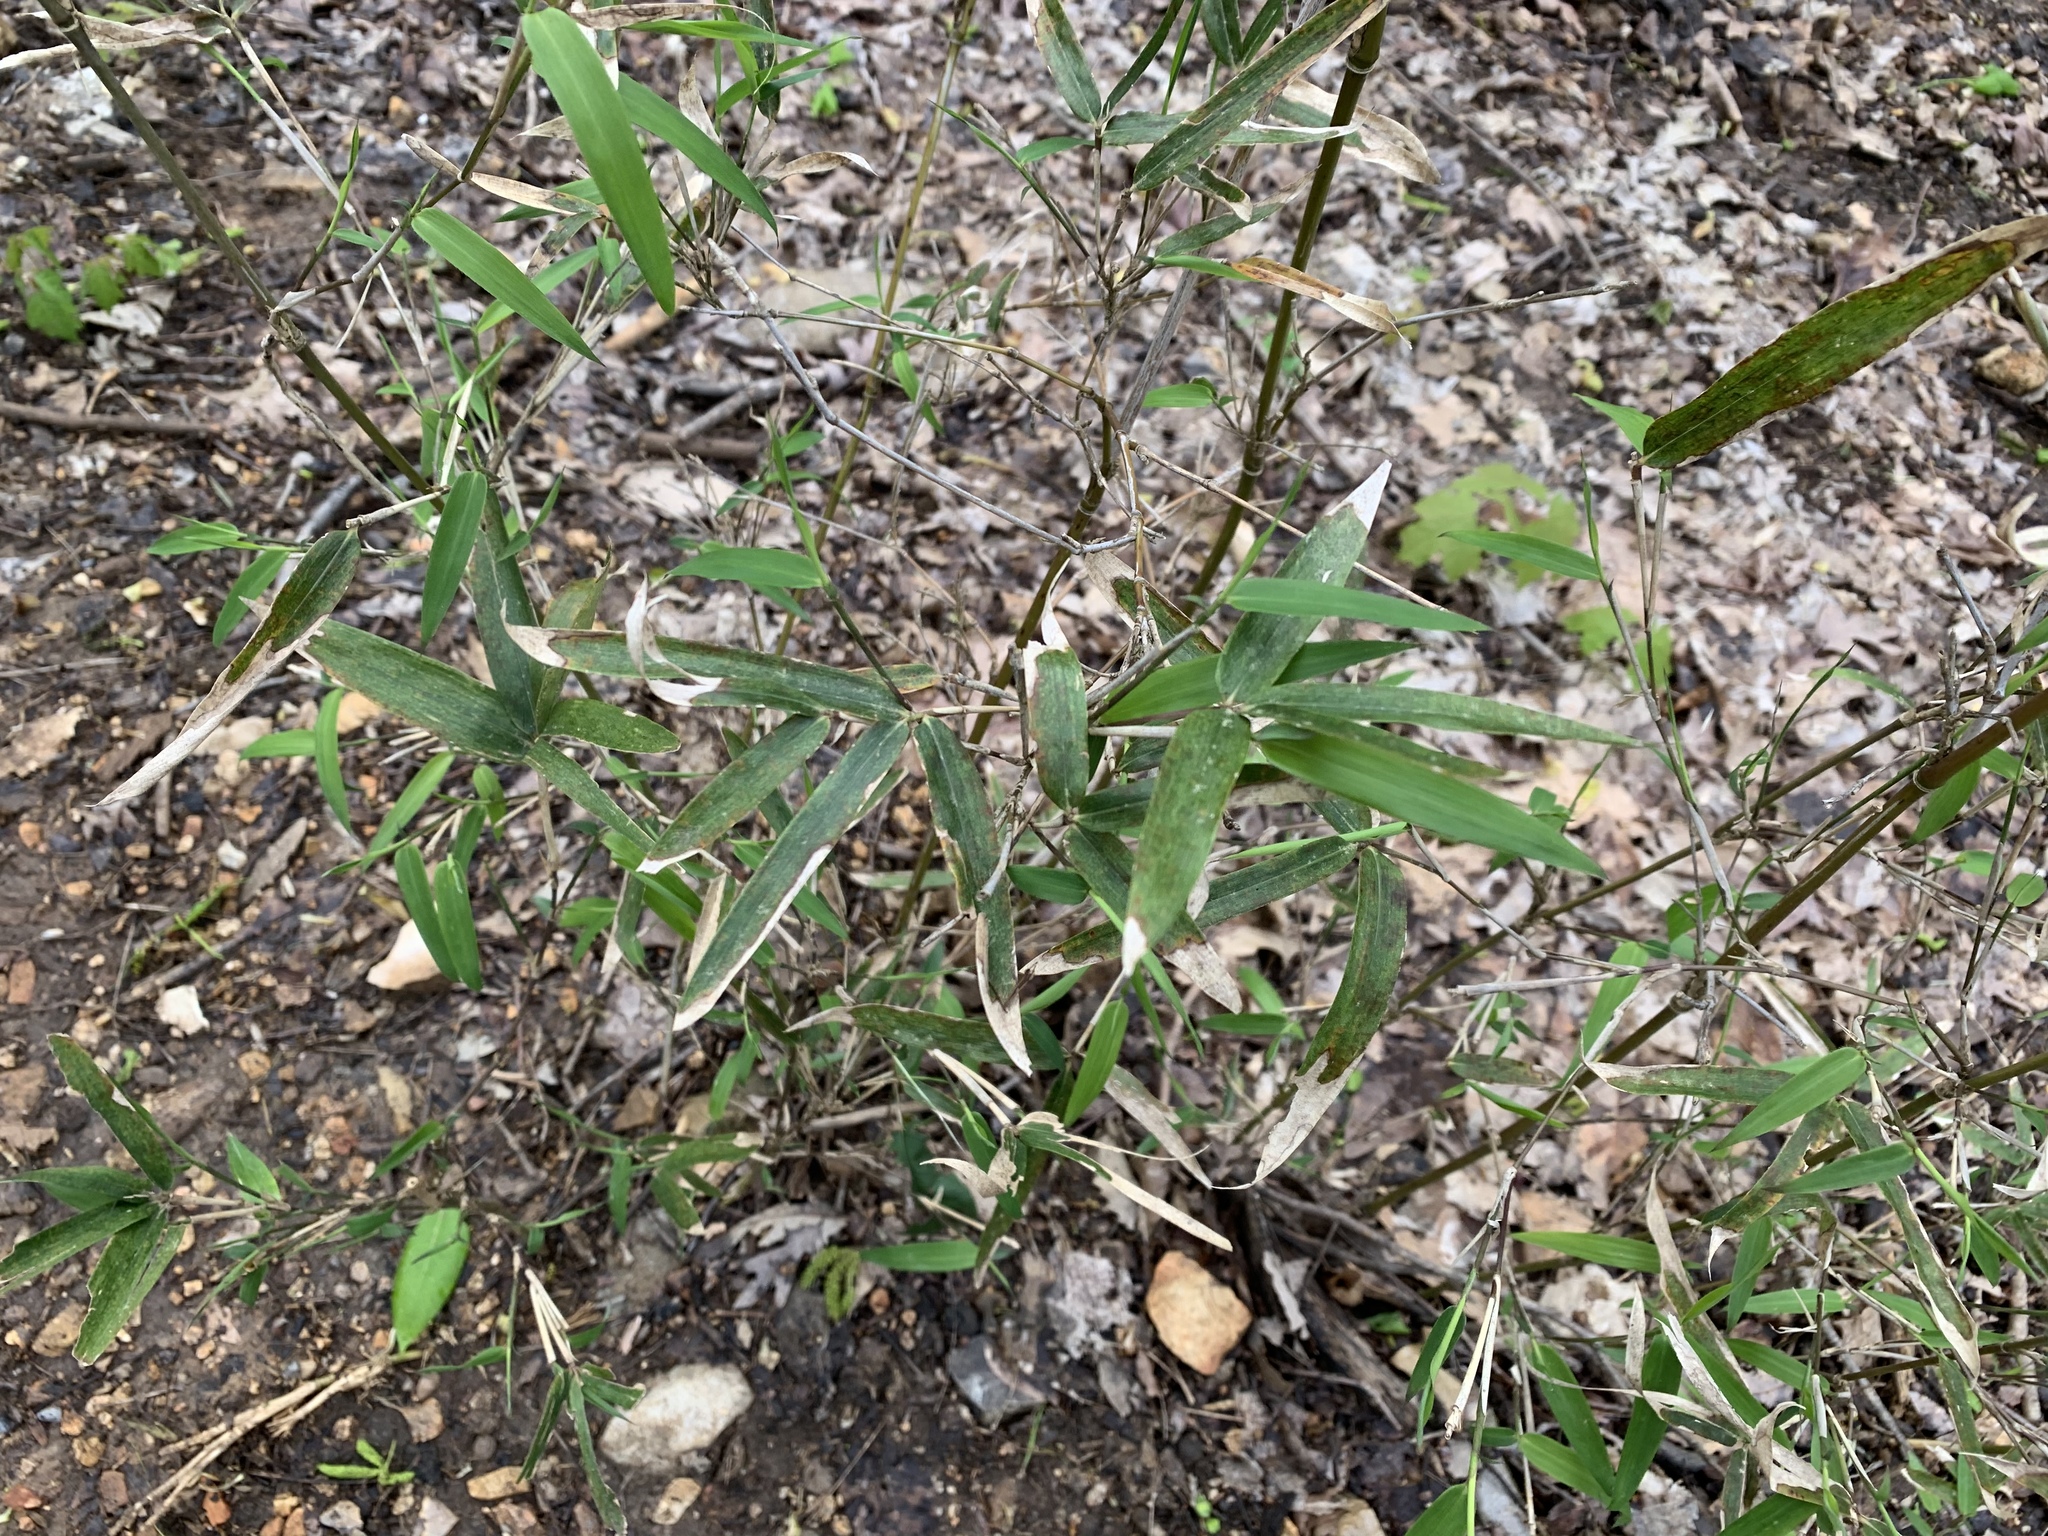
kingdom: Plantae
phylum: Tracheophyta
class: Liliopsida
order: Poales
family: Poaceae
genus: Arundinaria
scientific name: Arundinaria gigantea
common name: Giant cane
